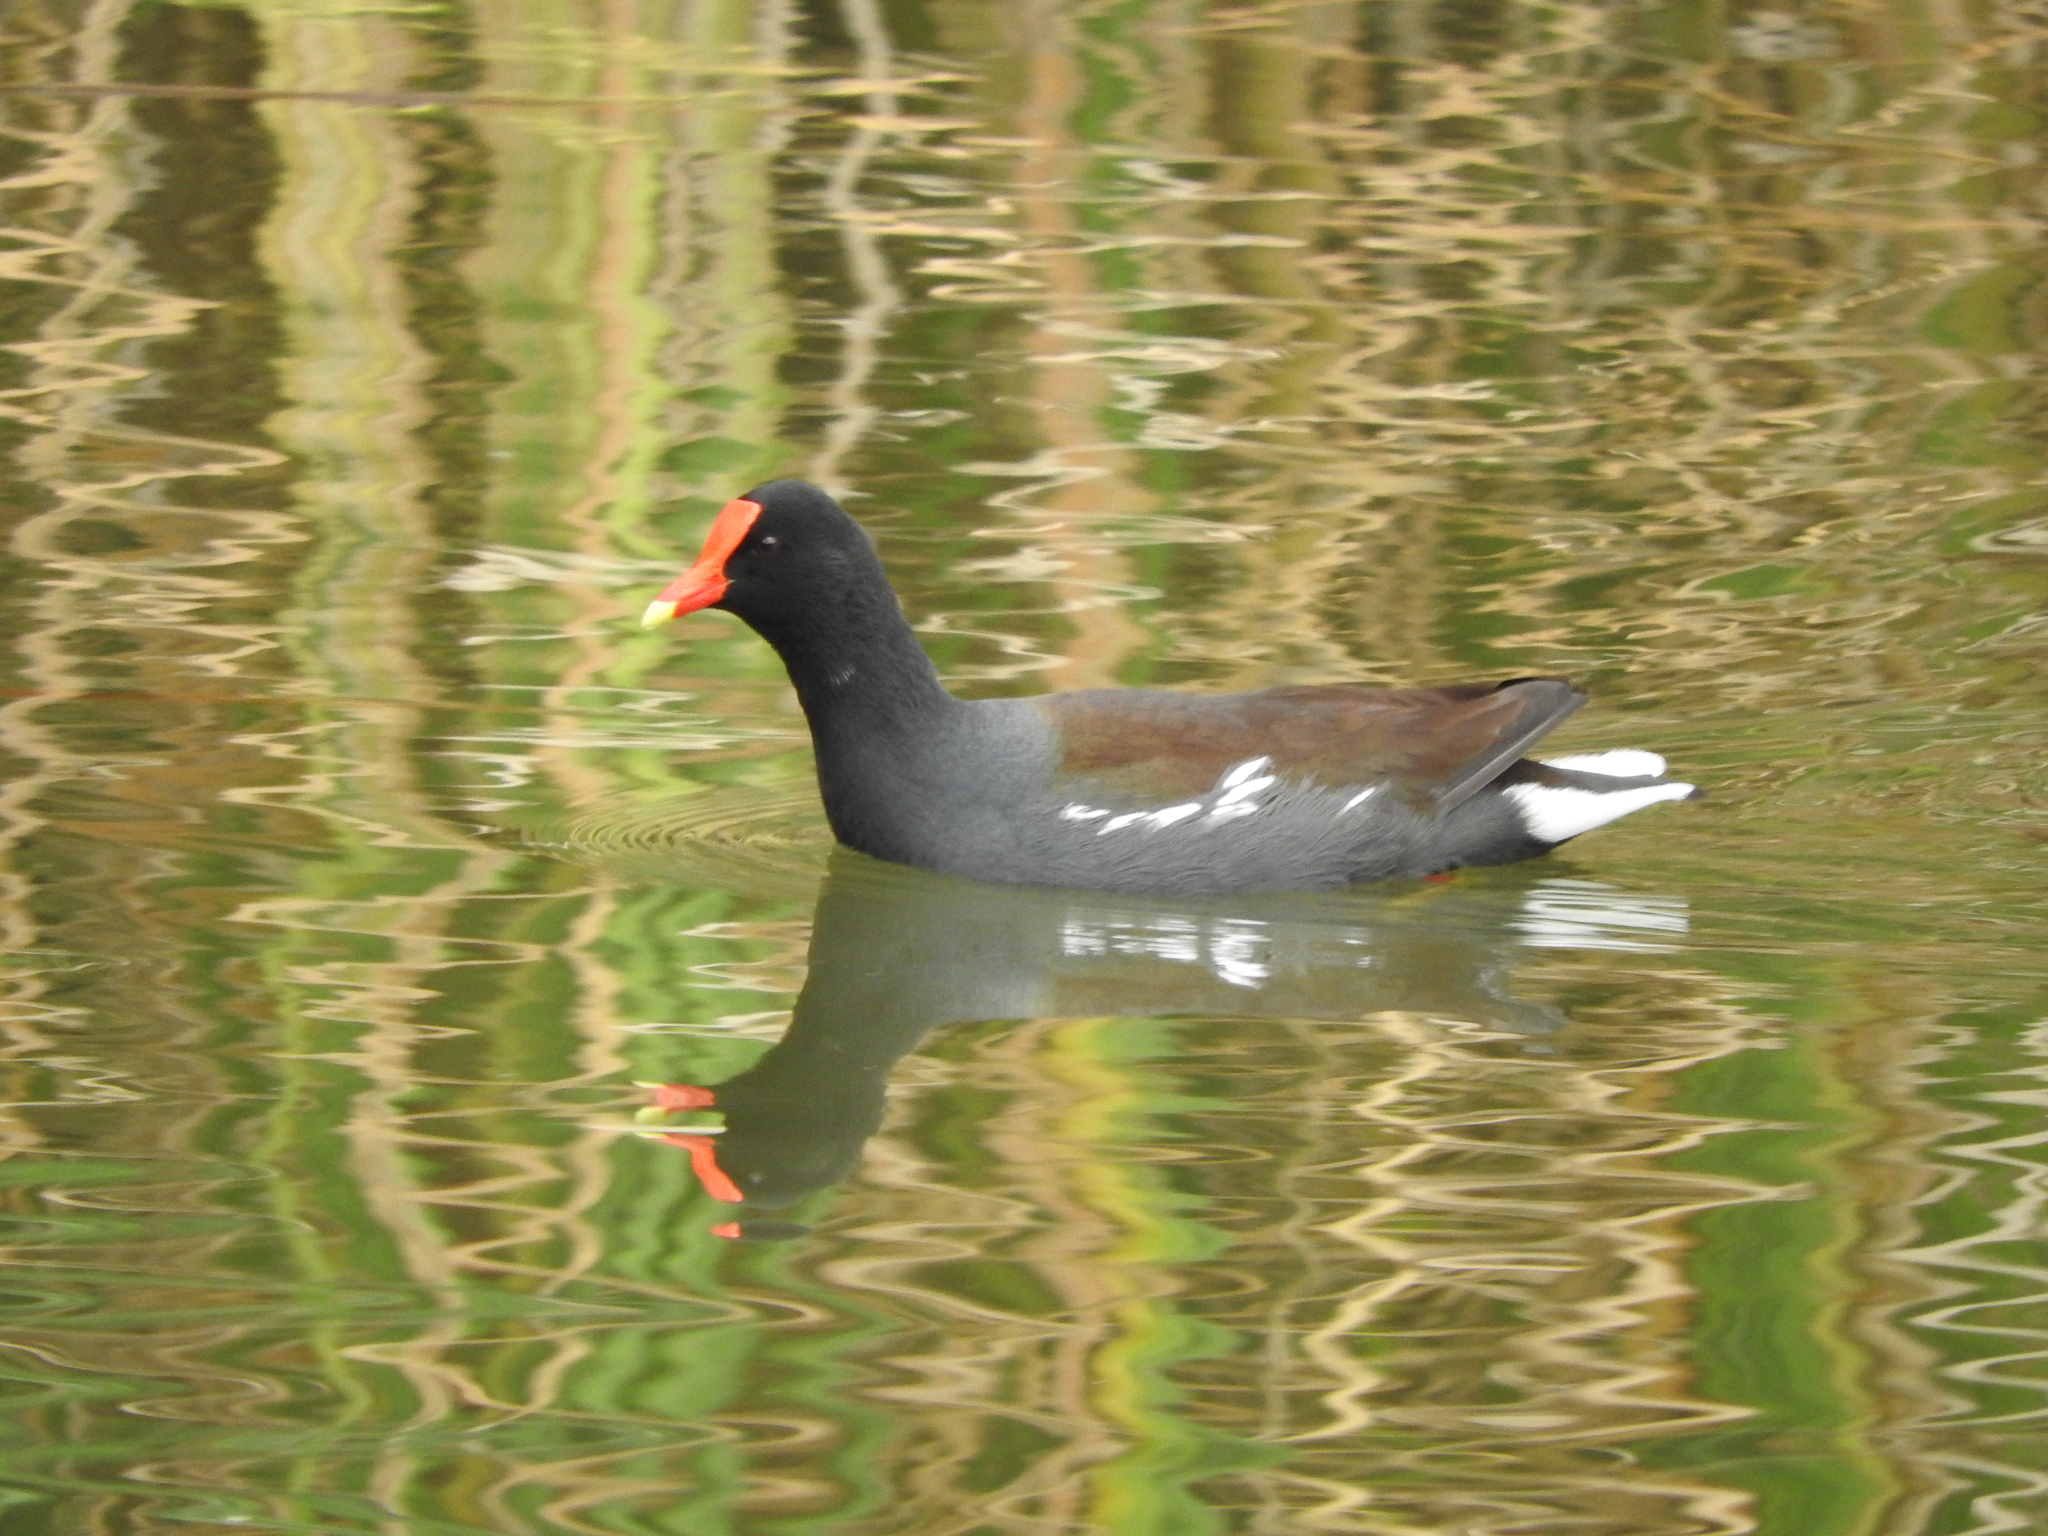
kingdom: Animalia
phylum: Chordata
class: Aves
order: Gruiformes
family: Rallidae
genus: Gallinula
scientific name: Gallinula chloropus
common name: Common moorhen
